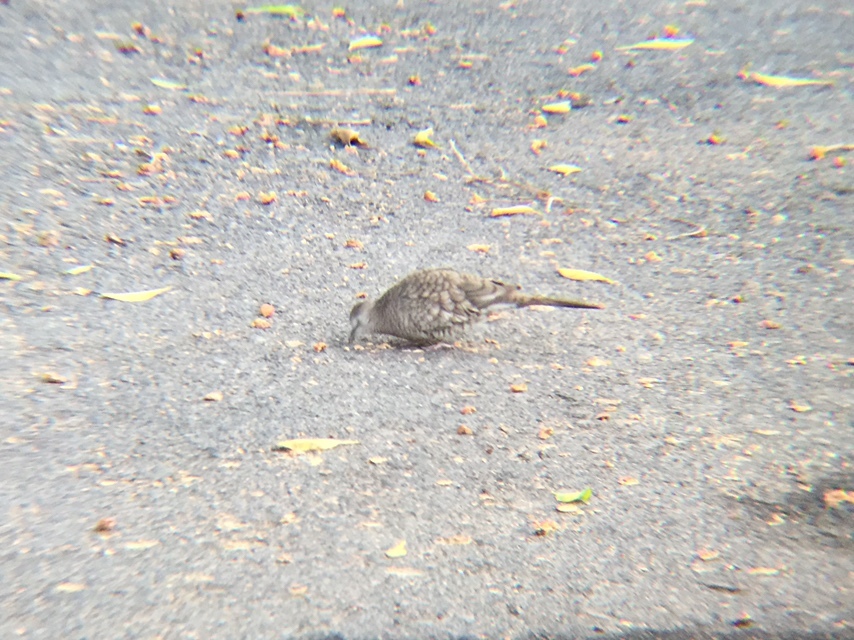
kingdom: Animalia
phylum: Chordata
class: Aves
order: Columbiformes
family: Columbidae
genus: Columbina
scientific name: Columbina inca
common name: Inca dove
